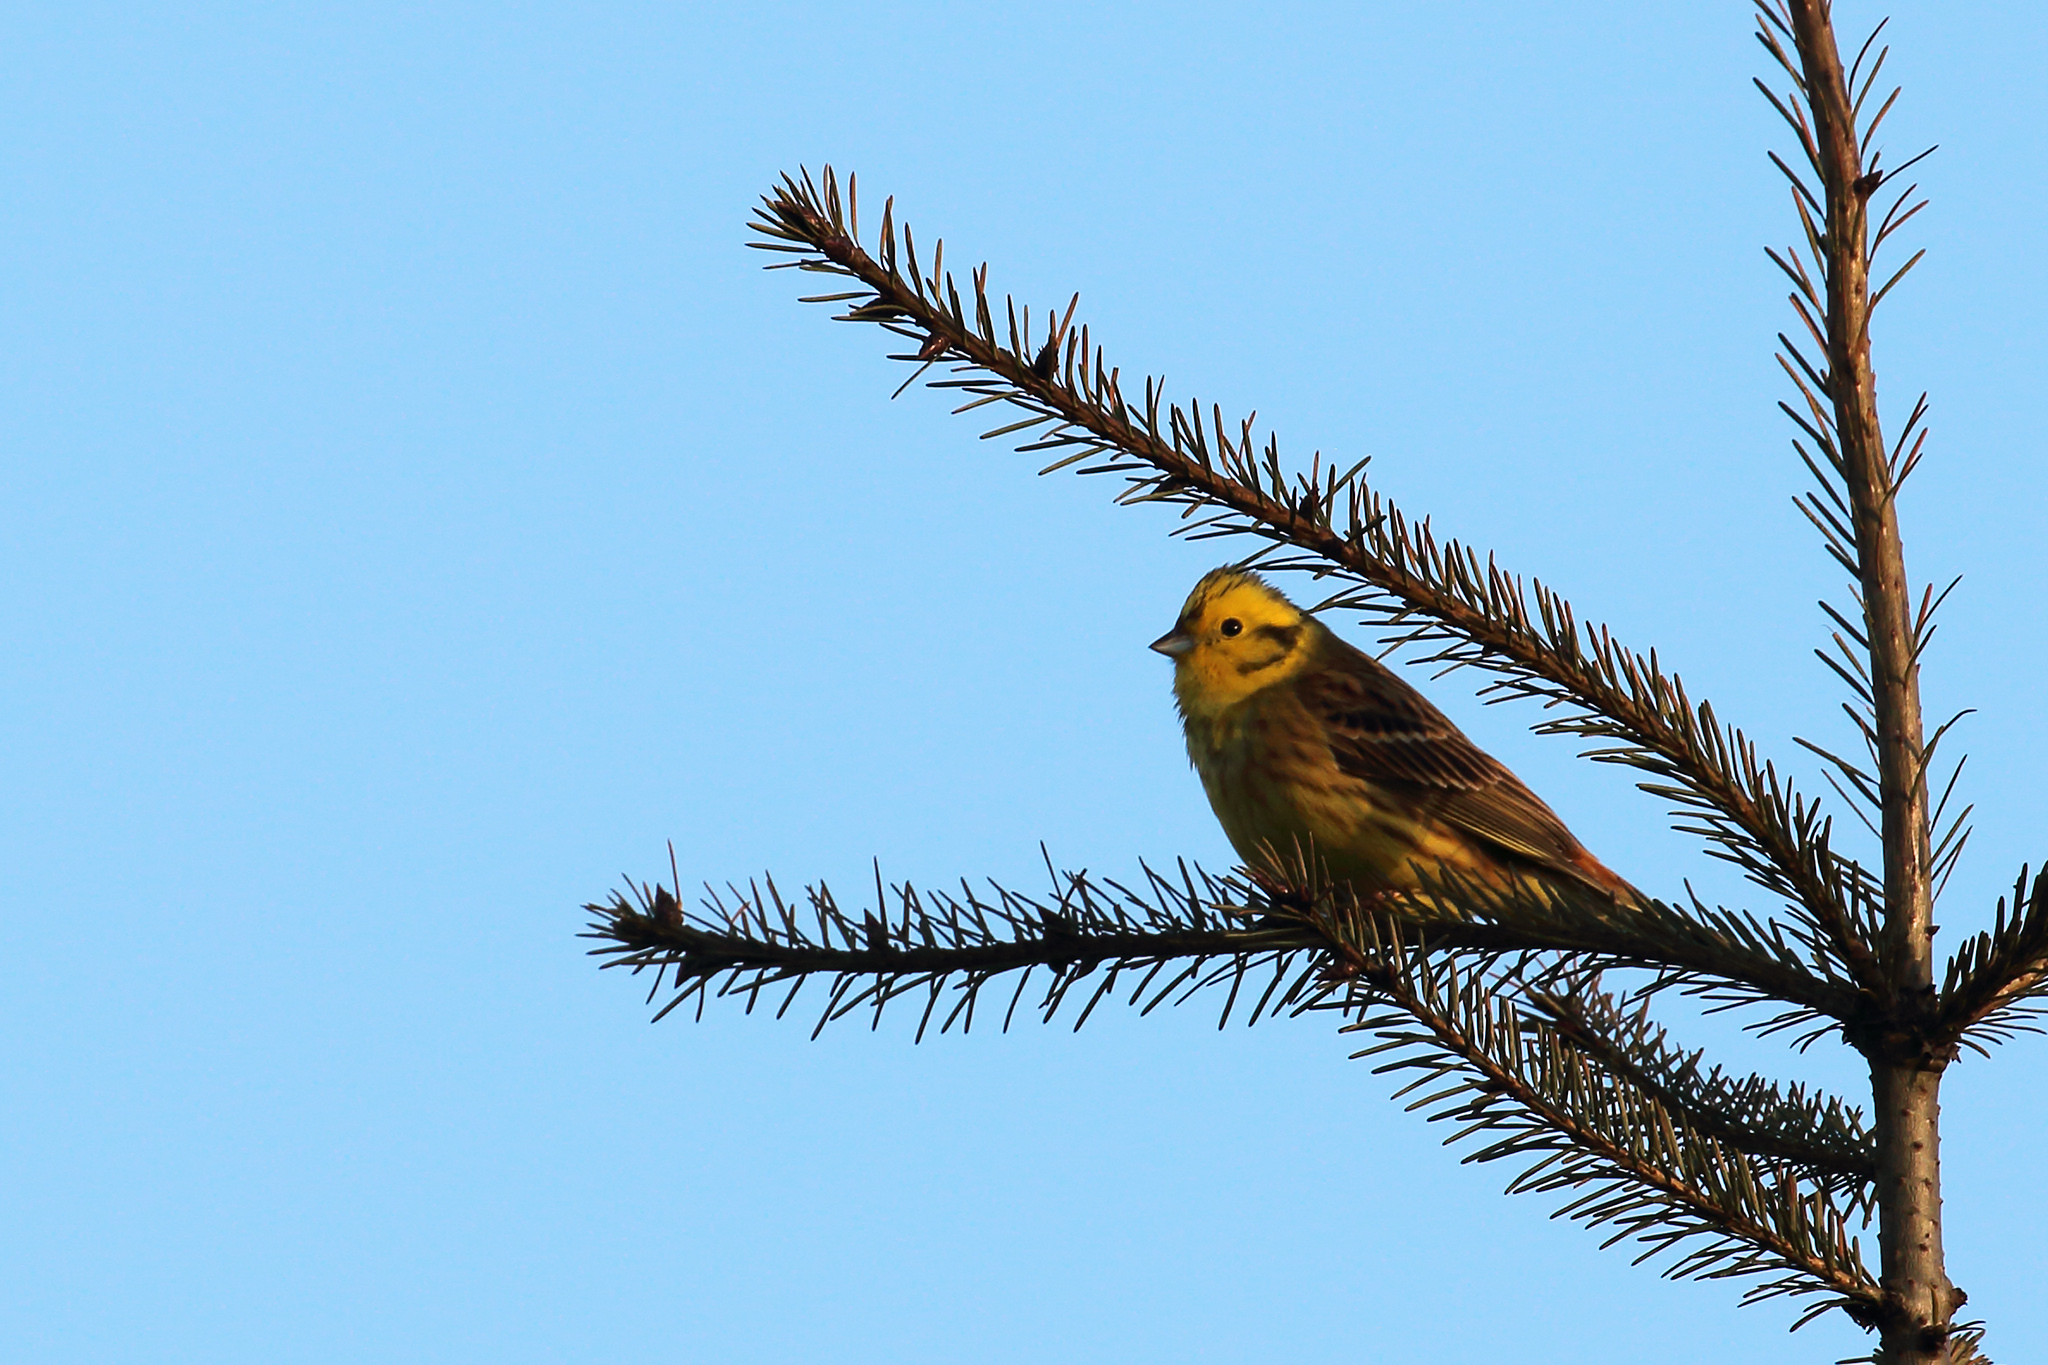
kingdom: Animalia
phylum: Chordata
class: Aves
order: Passeriformes
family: Emberizidae
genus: Emberiza
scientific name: Emberiza citrinella
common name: Yellowhammer
